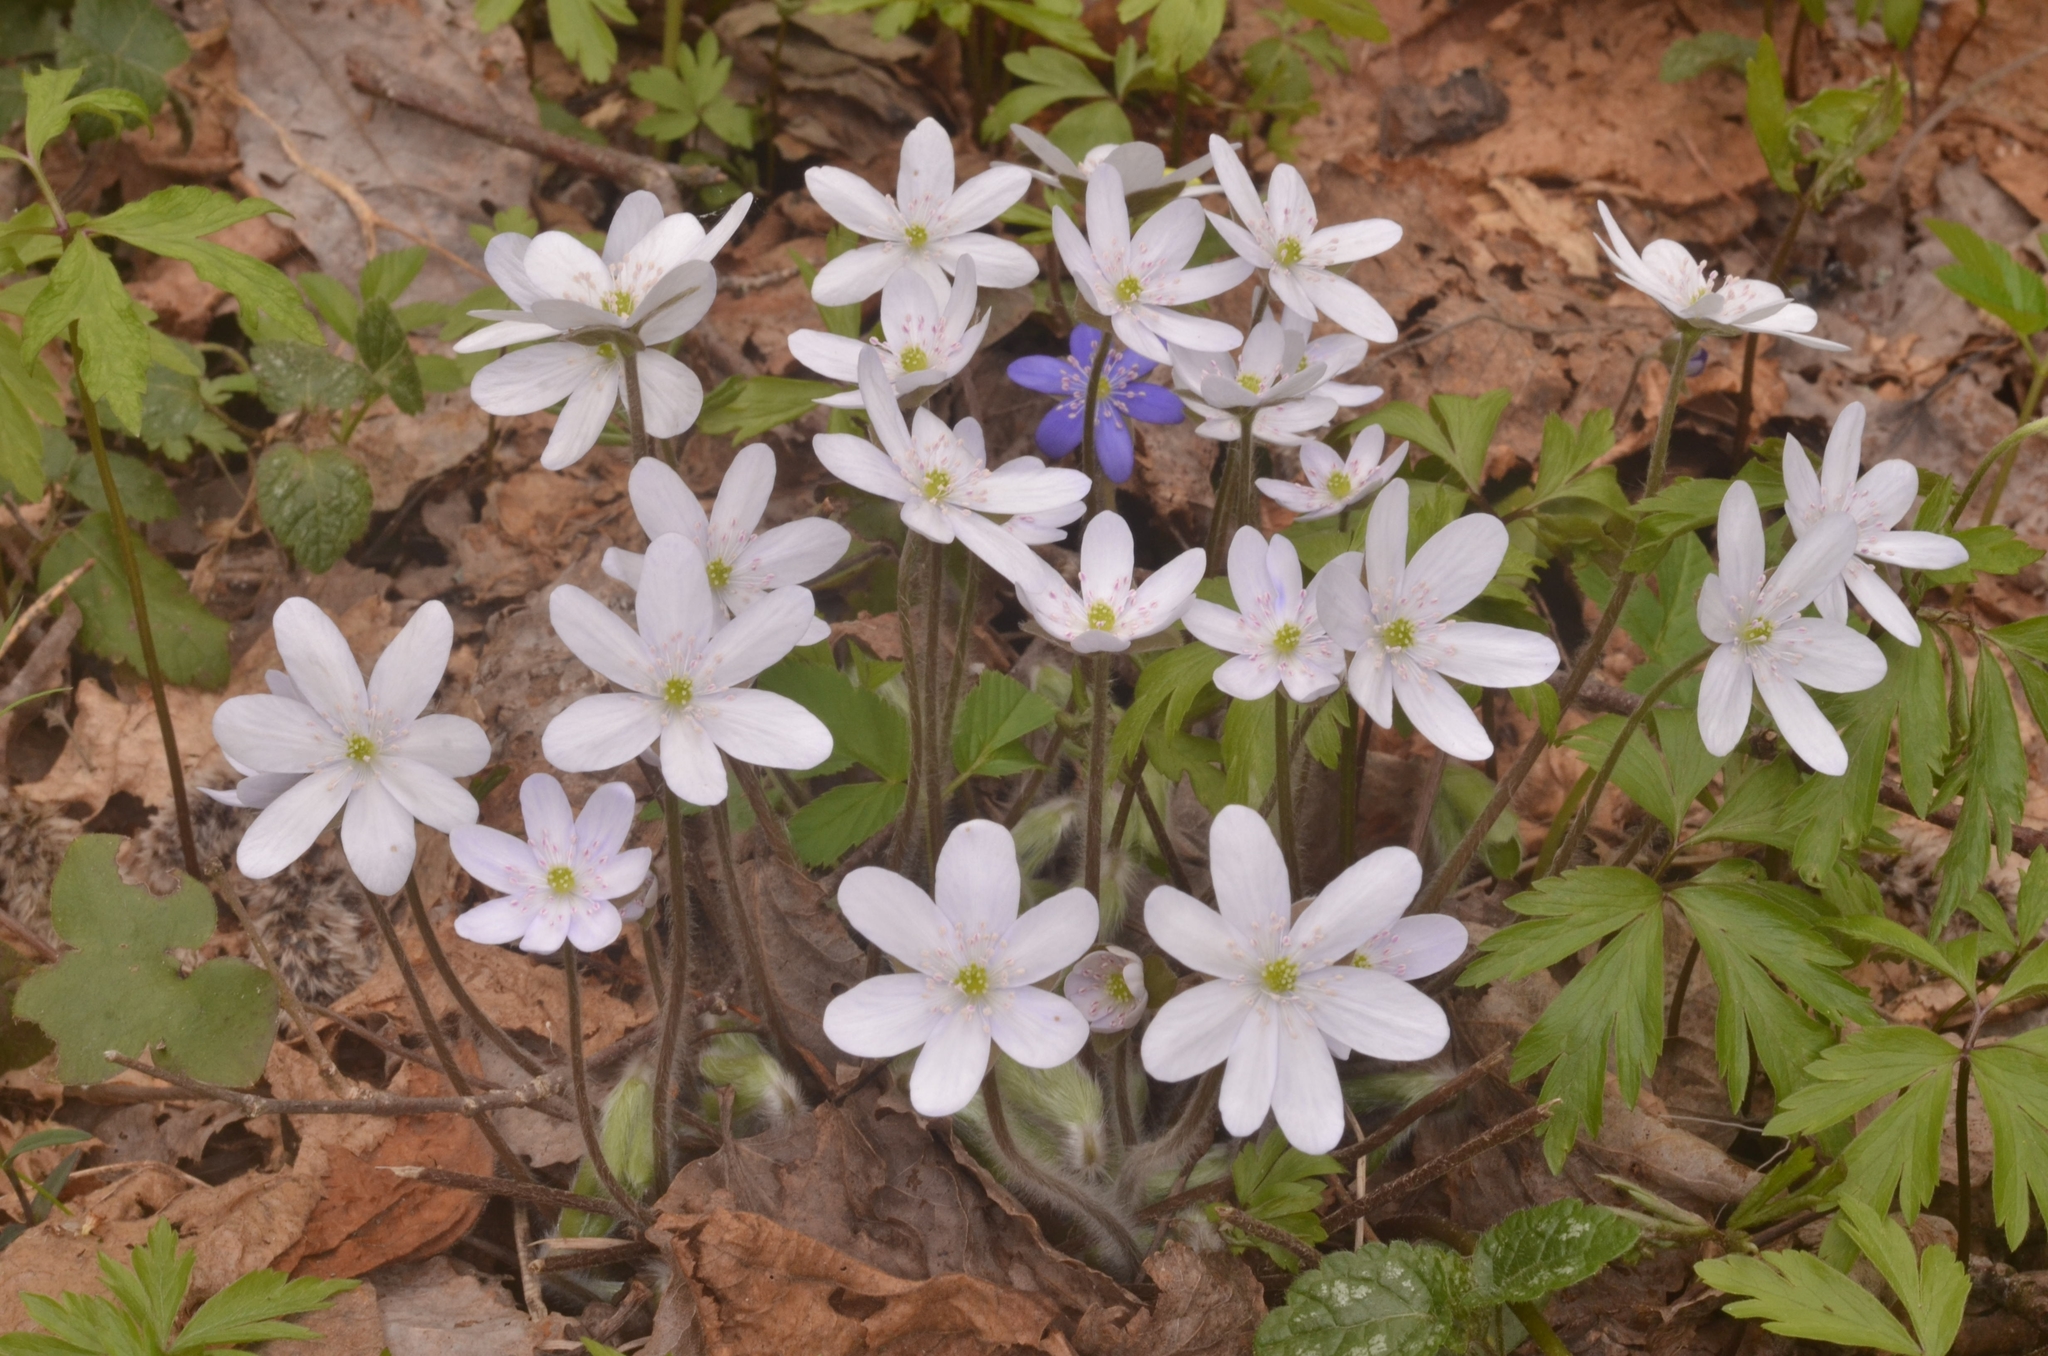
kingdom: Plantae
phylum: Tracheophyta
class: Magnoliopsida
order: Ranunculales
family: Ranunculaceae
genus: Hepatica
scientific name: Hepatica nobilis
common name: Liverleaf
